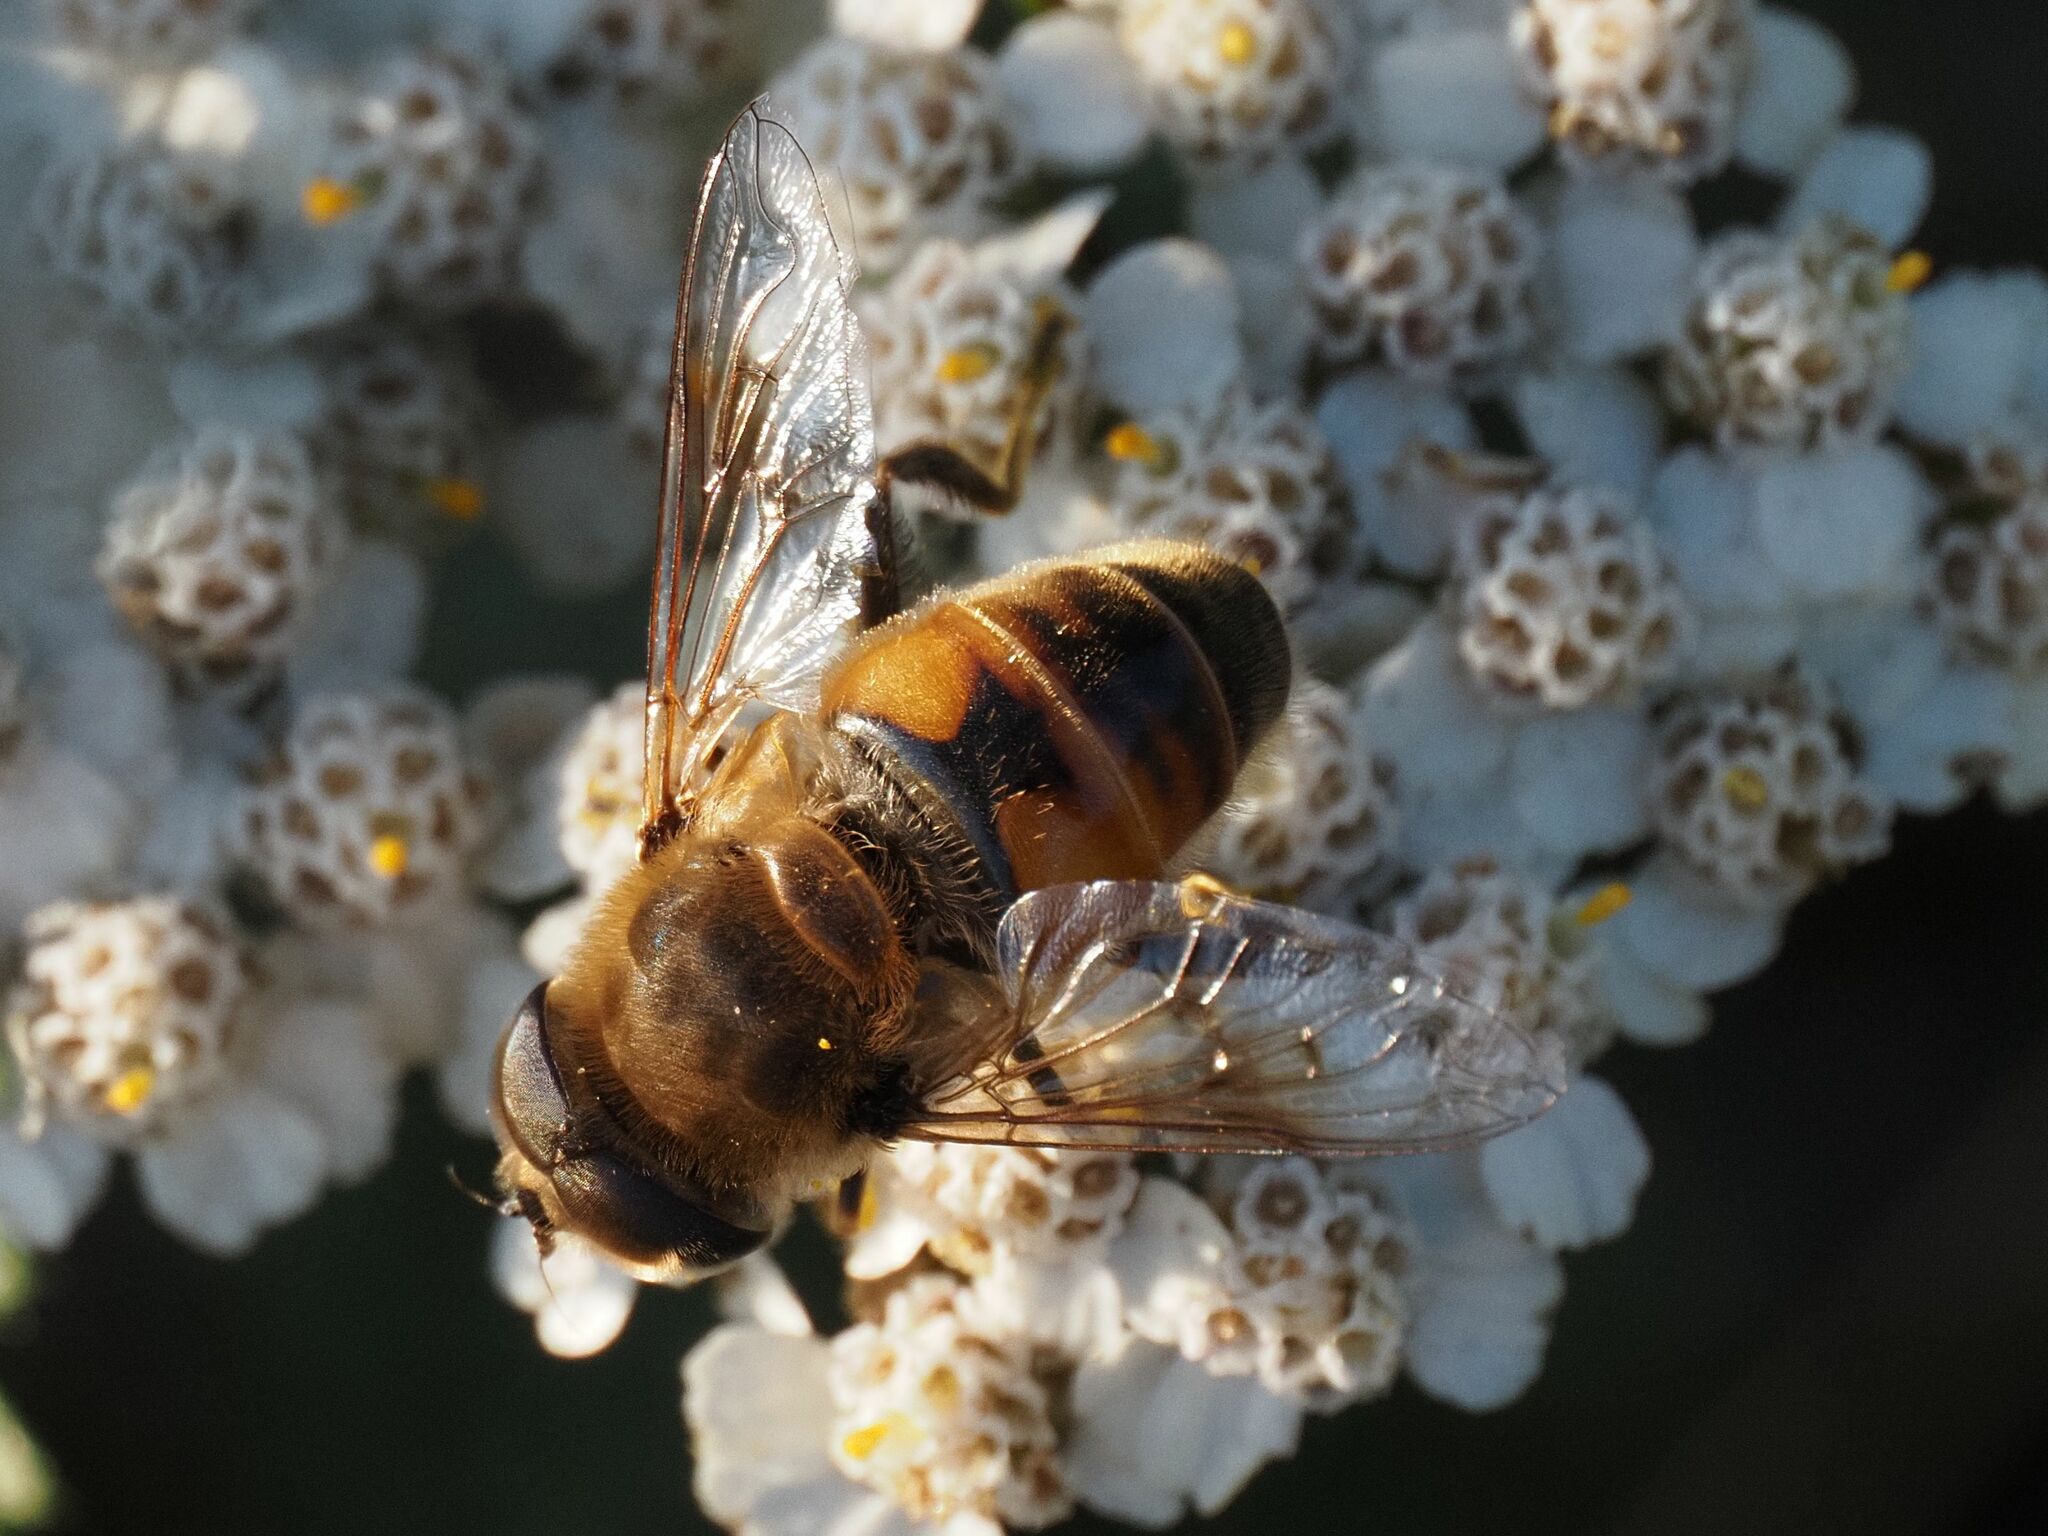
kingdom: Animalia
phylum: Arthropoda
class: Insecta
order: Diptera
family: Syrphidae
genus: Eristalis
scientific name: Eristalis tenax
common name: Drone fly
